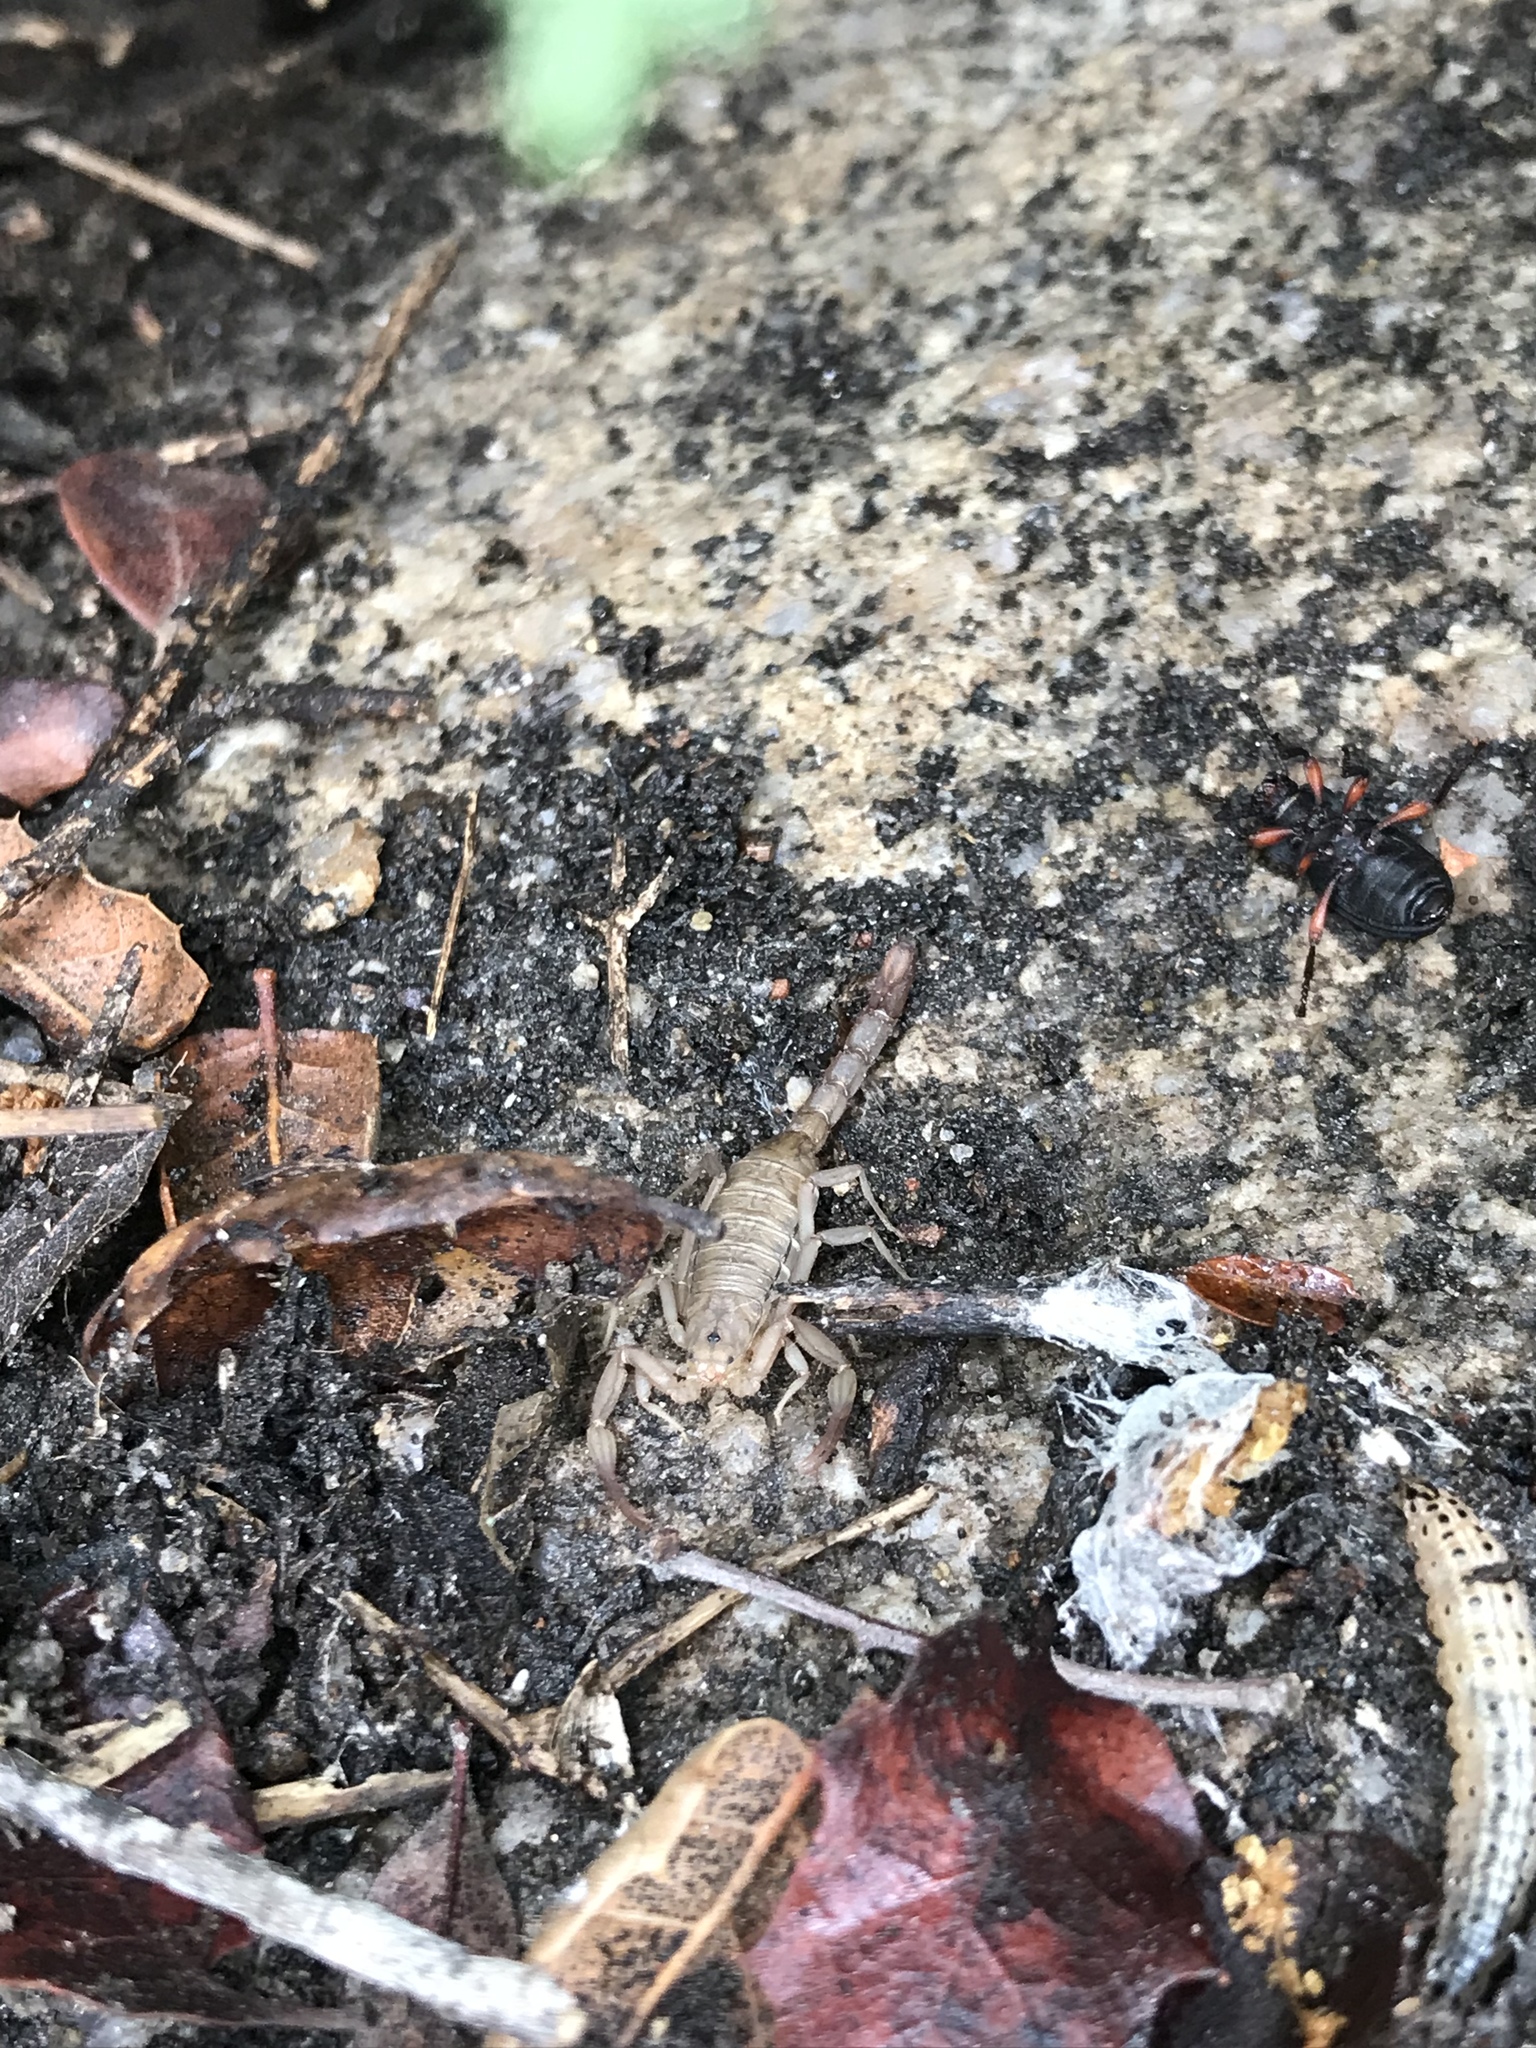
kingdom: Animalia
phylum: Arthropoda
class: Arachnida
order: Scorpiones
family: Vaejovidae
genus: Serradigitus
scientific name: Serradigitus gertschi
